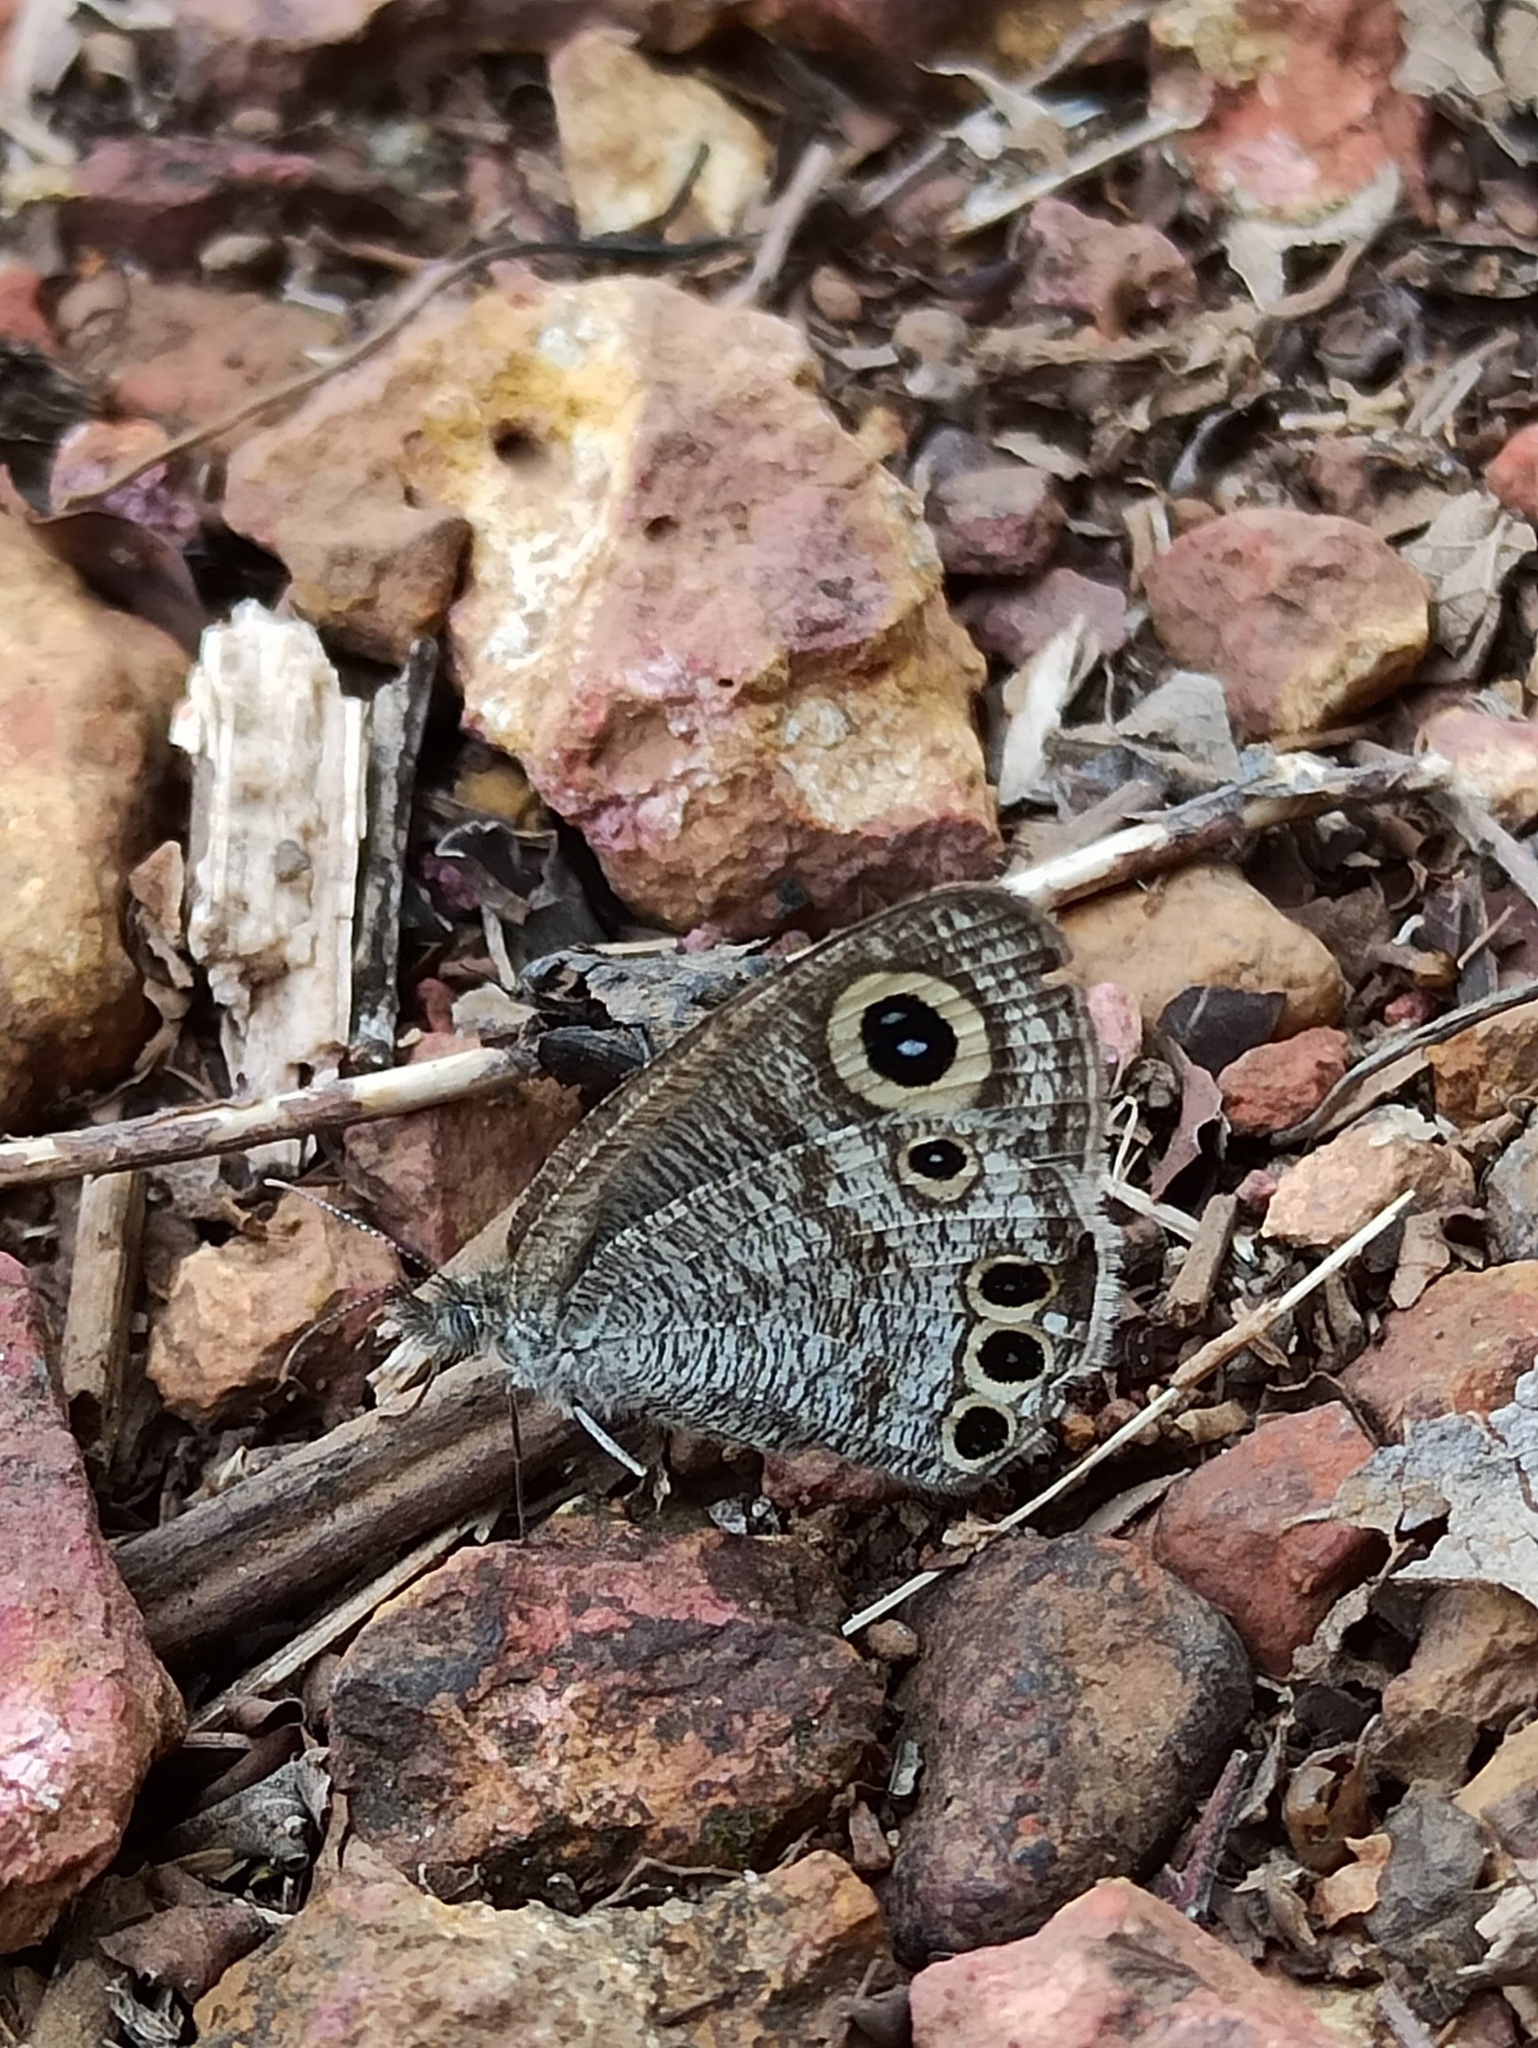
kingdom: Animalia
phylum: Arthropoda
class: Insecta
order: Lepidoptera
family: Nymphalidae
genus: Ypthima
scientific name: Ypthima huebneri
